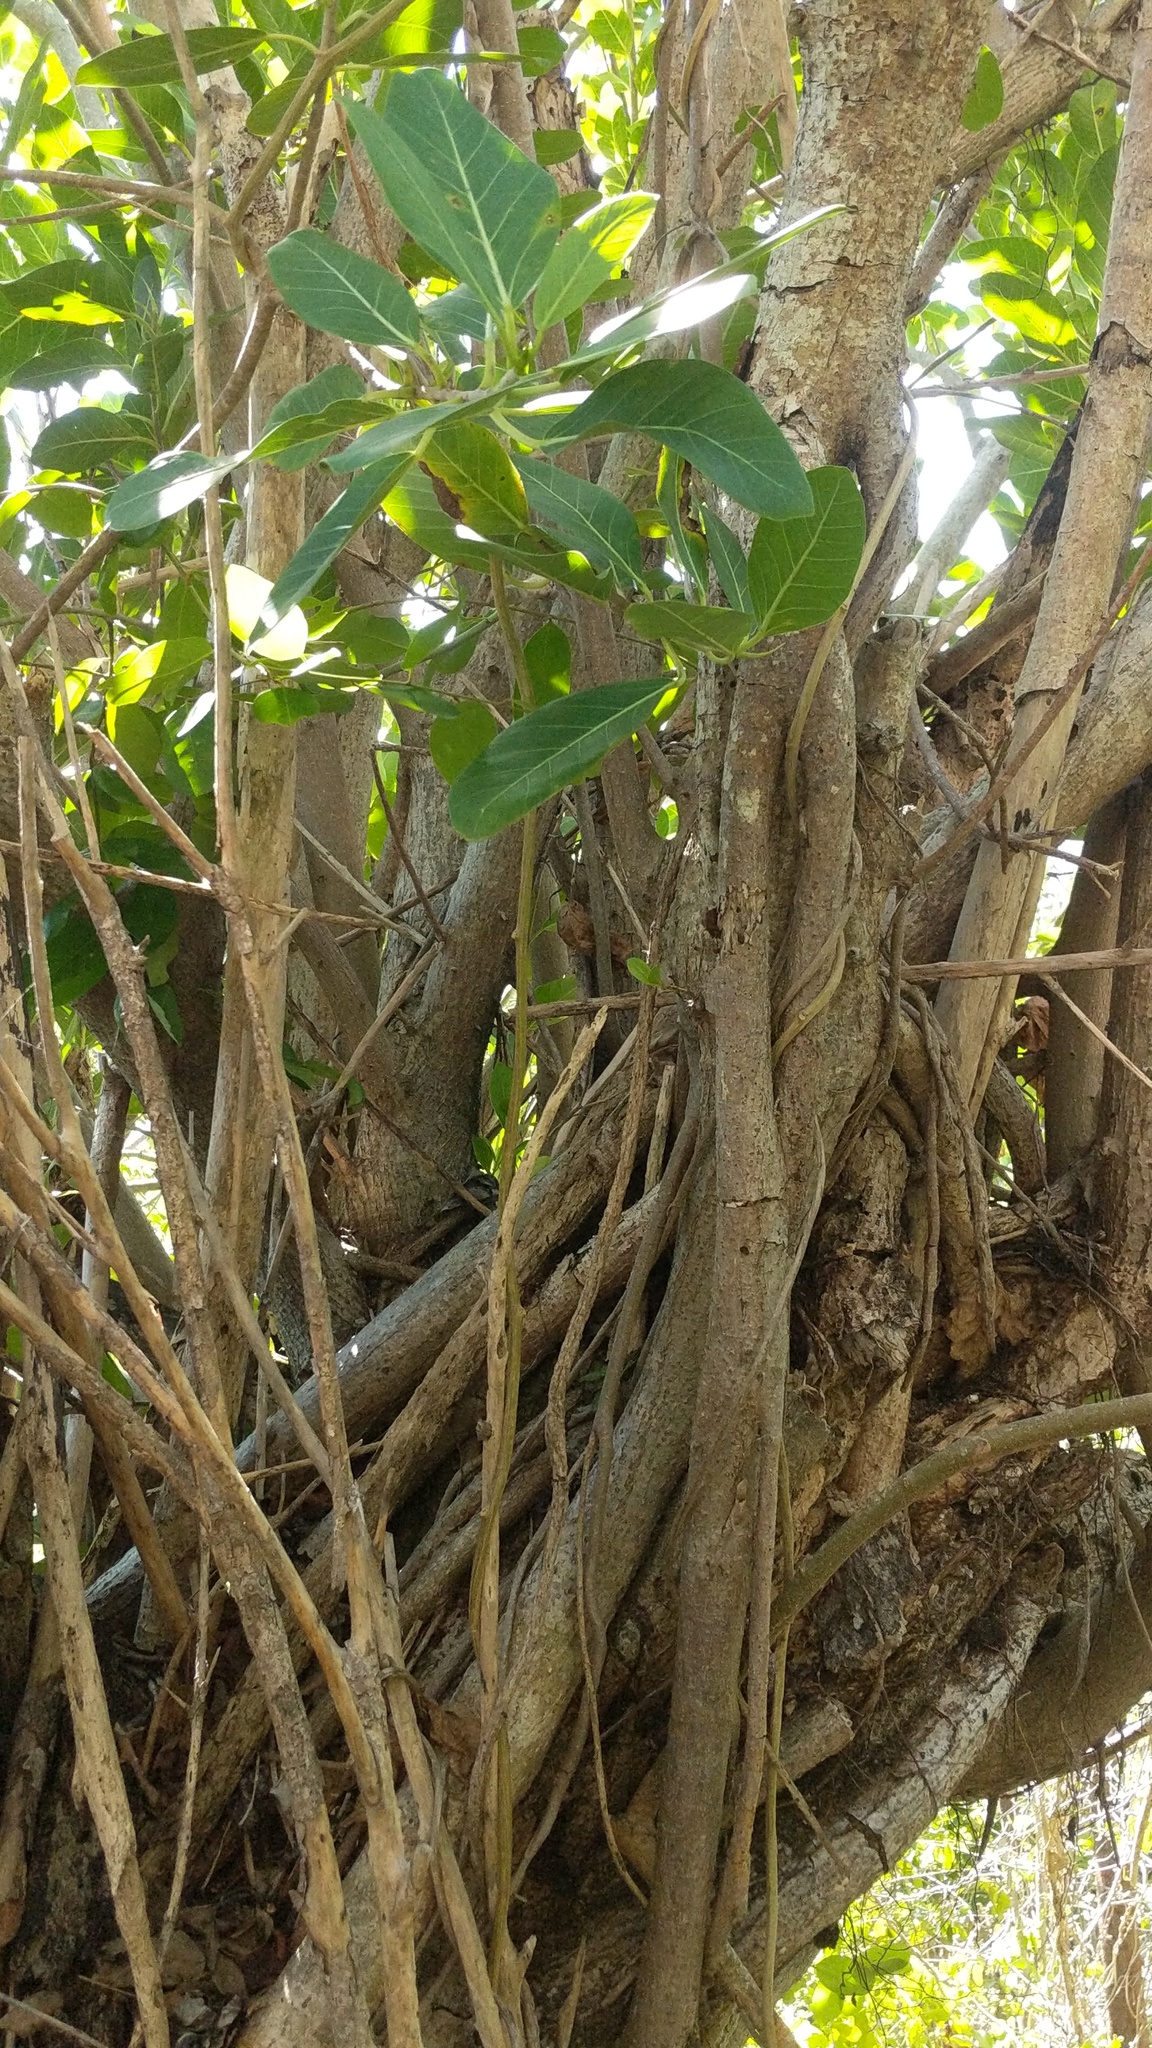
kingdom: Plantae
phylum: Tracheophyta
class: Magnoliopsida
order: Rosales
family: Moraceae
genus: Ficus
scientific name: Ficus aurea
